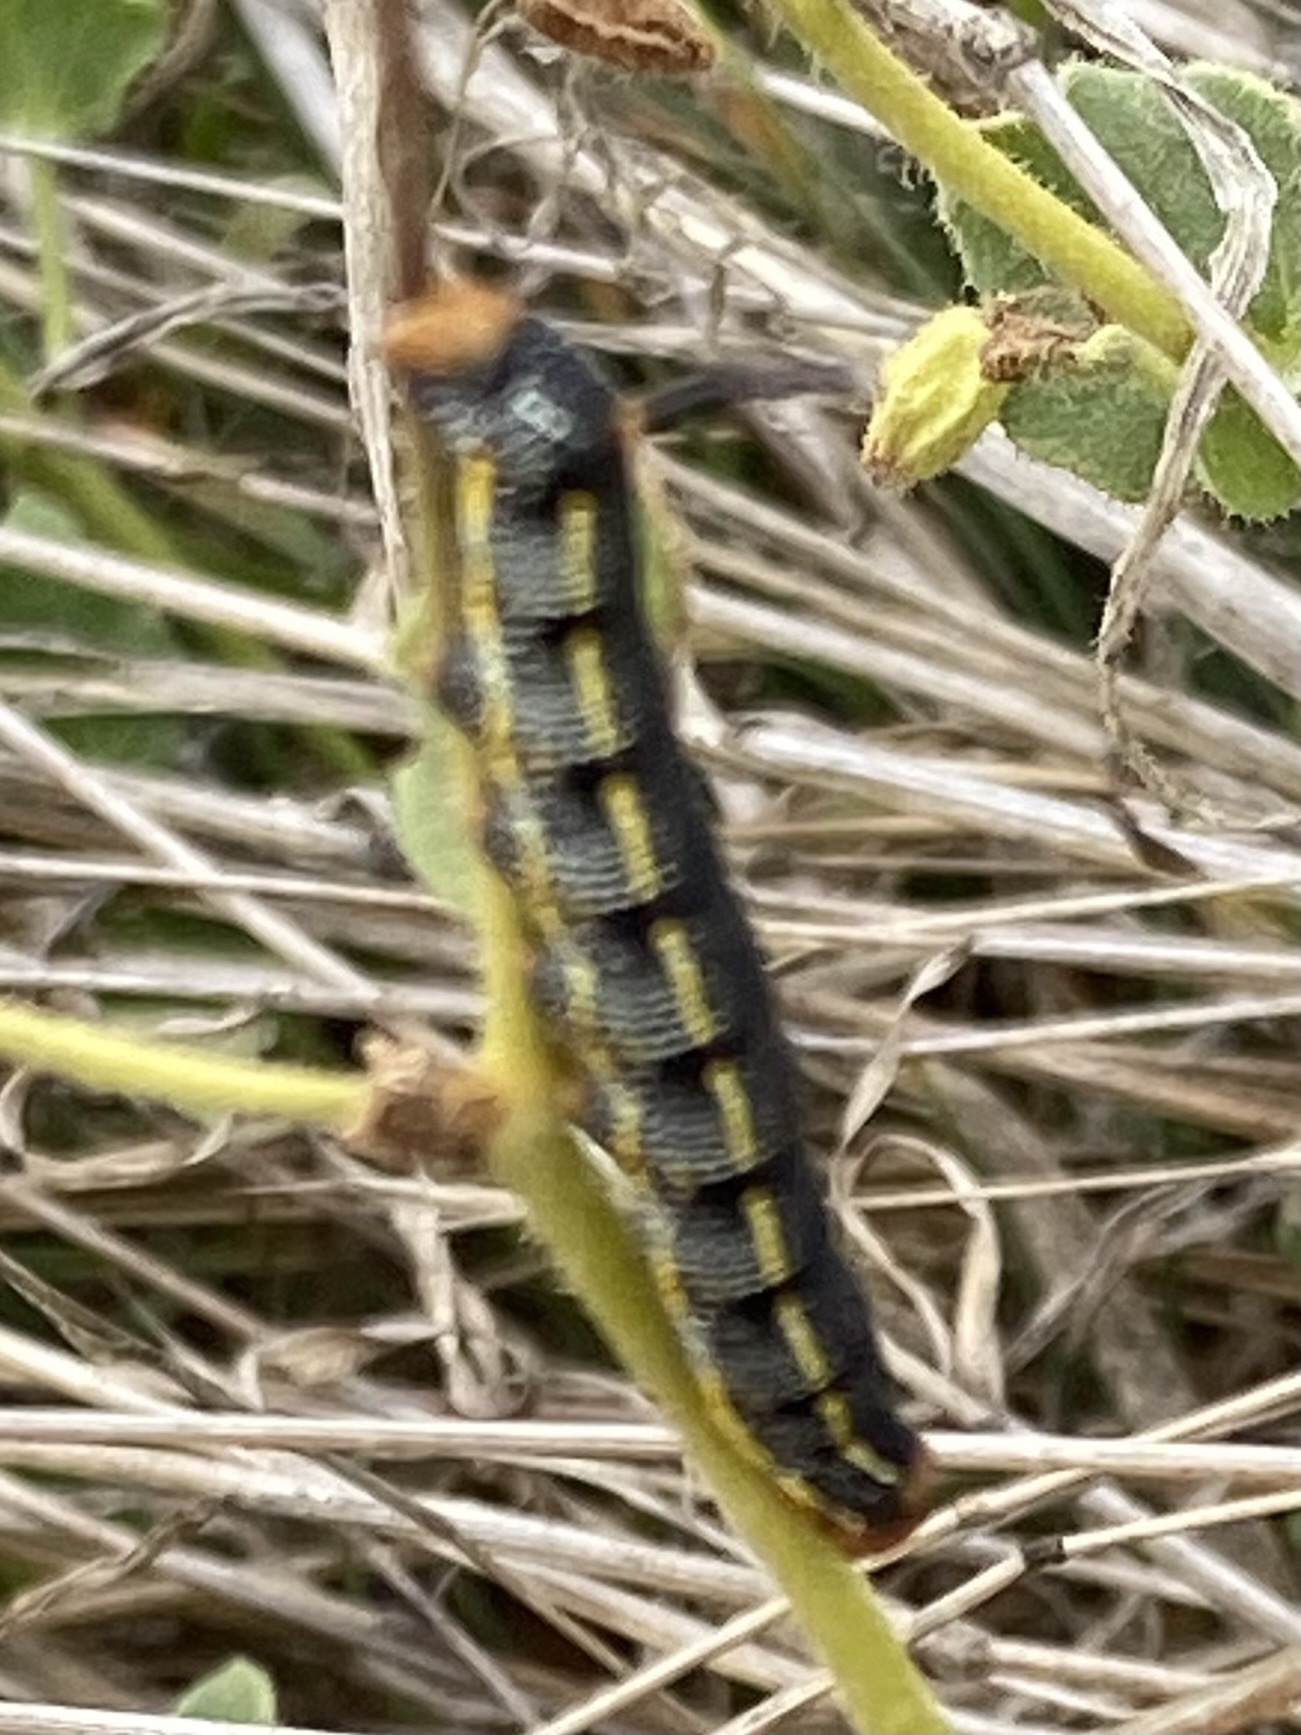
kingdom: Animalia
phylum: Arthropoda
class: Insecta
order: Lepidoptera
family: Sphingidae
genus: Hyles
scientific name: Hyles lineata
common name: White-lined sphinx
